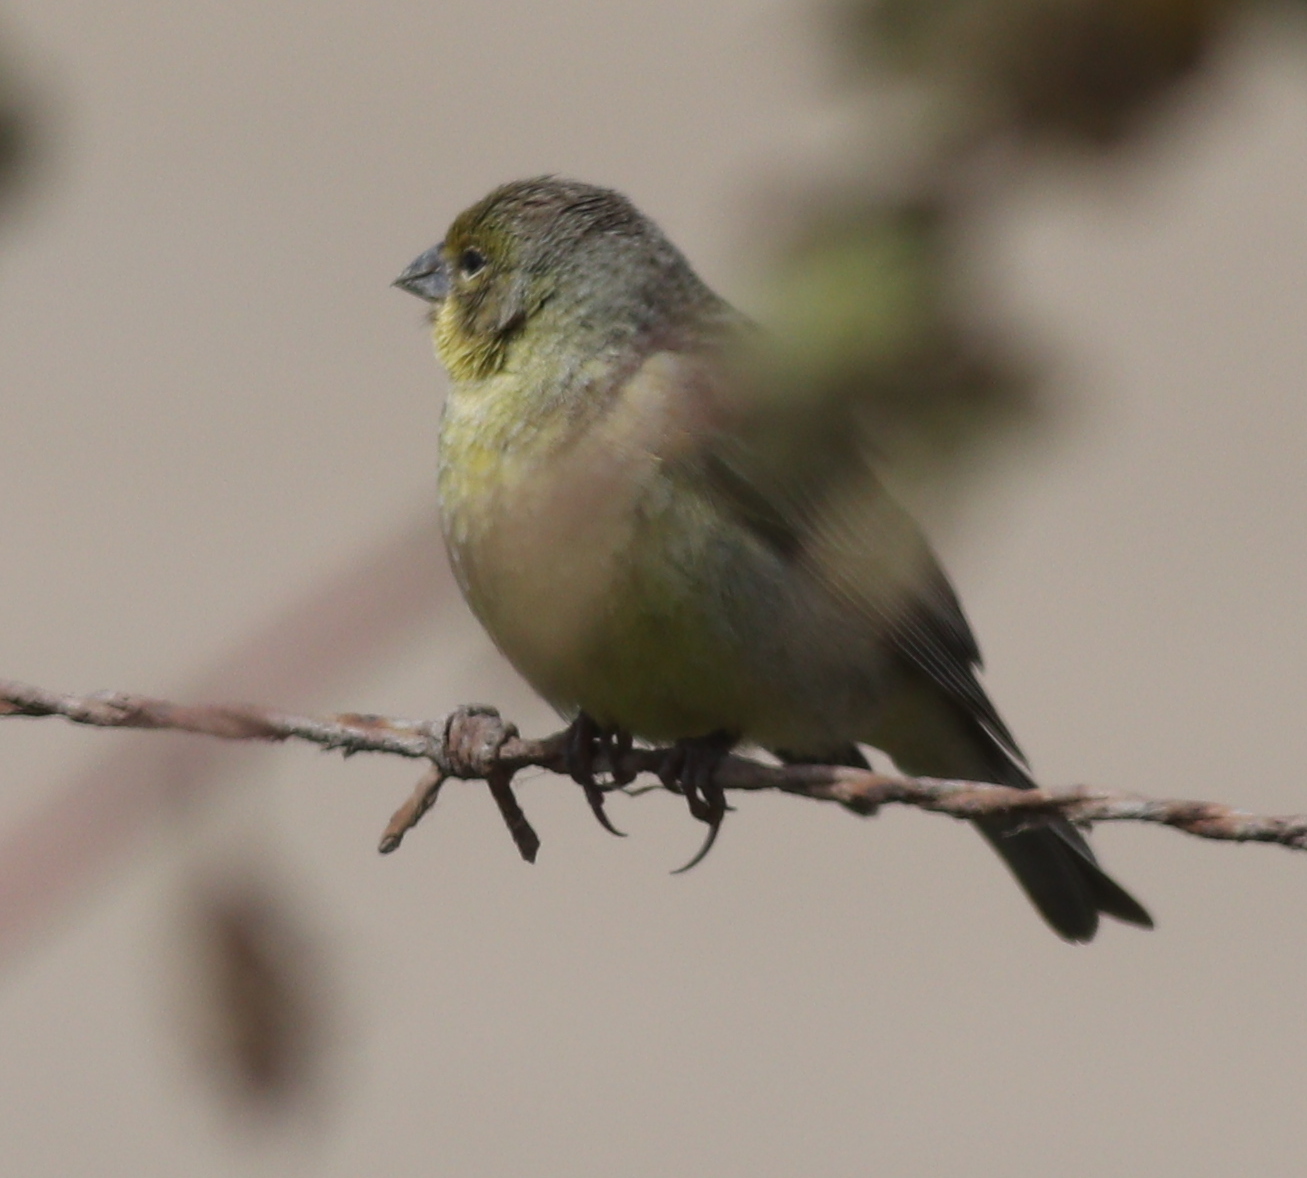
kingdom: Animalia
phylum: Chordata
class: Aves
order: Passeriformes
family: Thraupidae
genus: Sicalis
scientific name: Sicalis luteola
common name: Grassland yellow-finch
